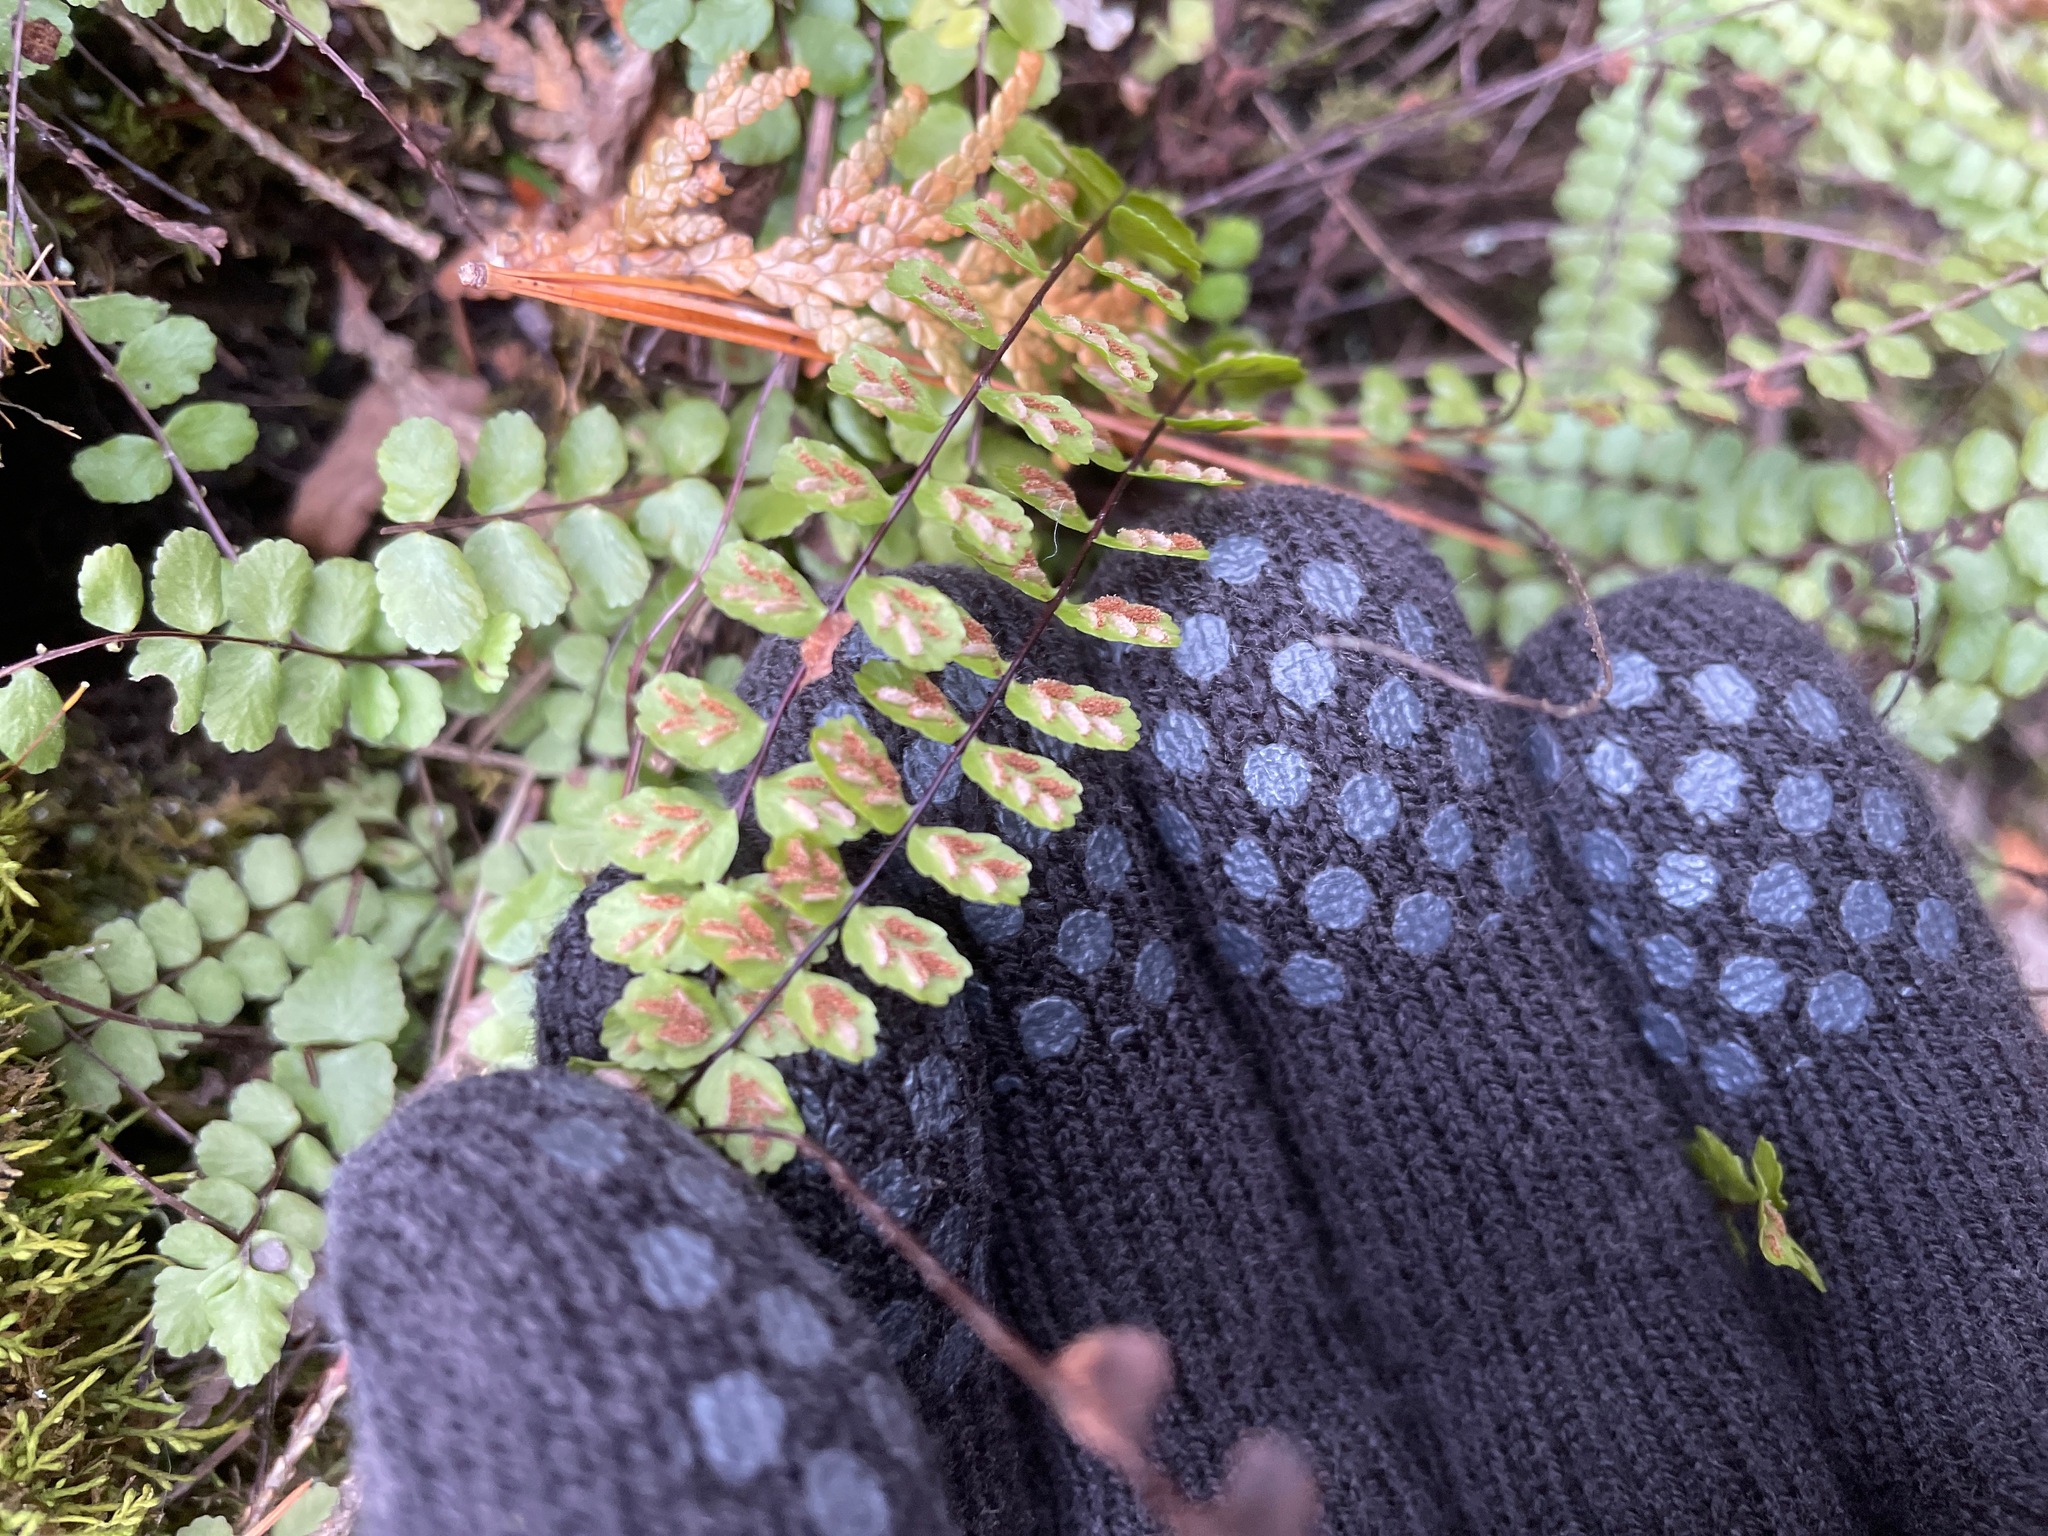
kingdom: Plantae
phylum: Tracheophyta
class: Polypodiopsida
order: Polypodiales
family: Aspleniaceae
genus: Asplenium
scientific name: Asplenium trichomanes
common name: Maidenhair spleenwort
